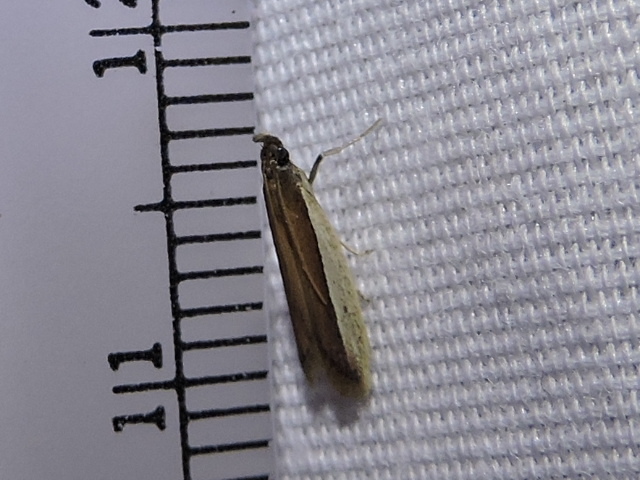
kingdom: Animalia
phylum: Arthropoda
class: Insecta
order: Lepidoptera
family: Pyralidae
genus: Tampa
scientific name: Tampa dimediatella
